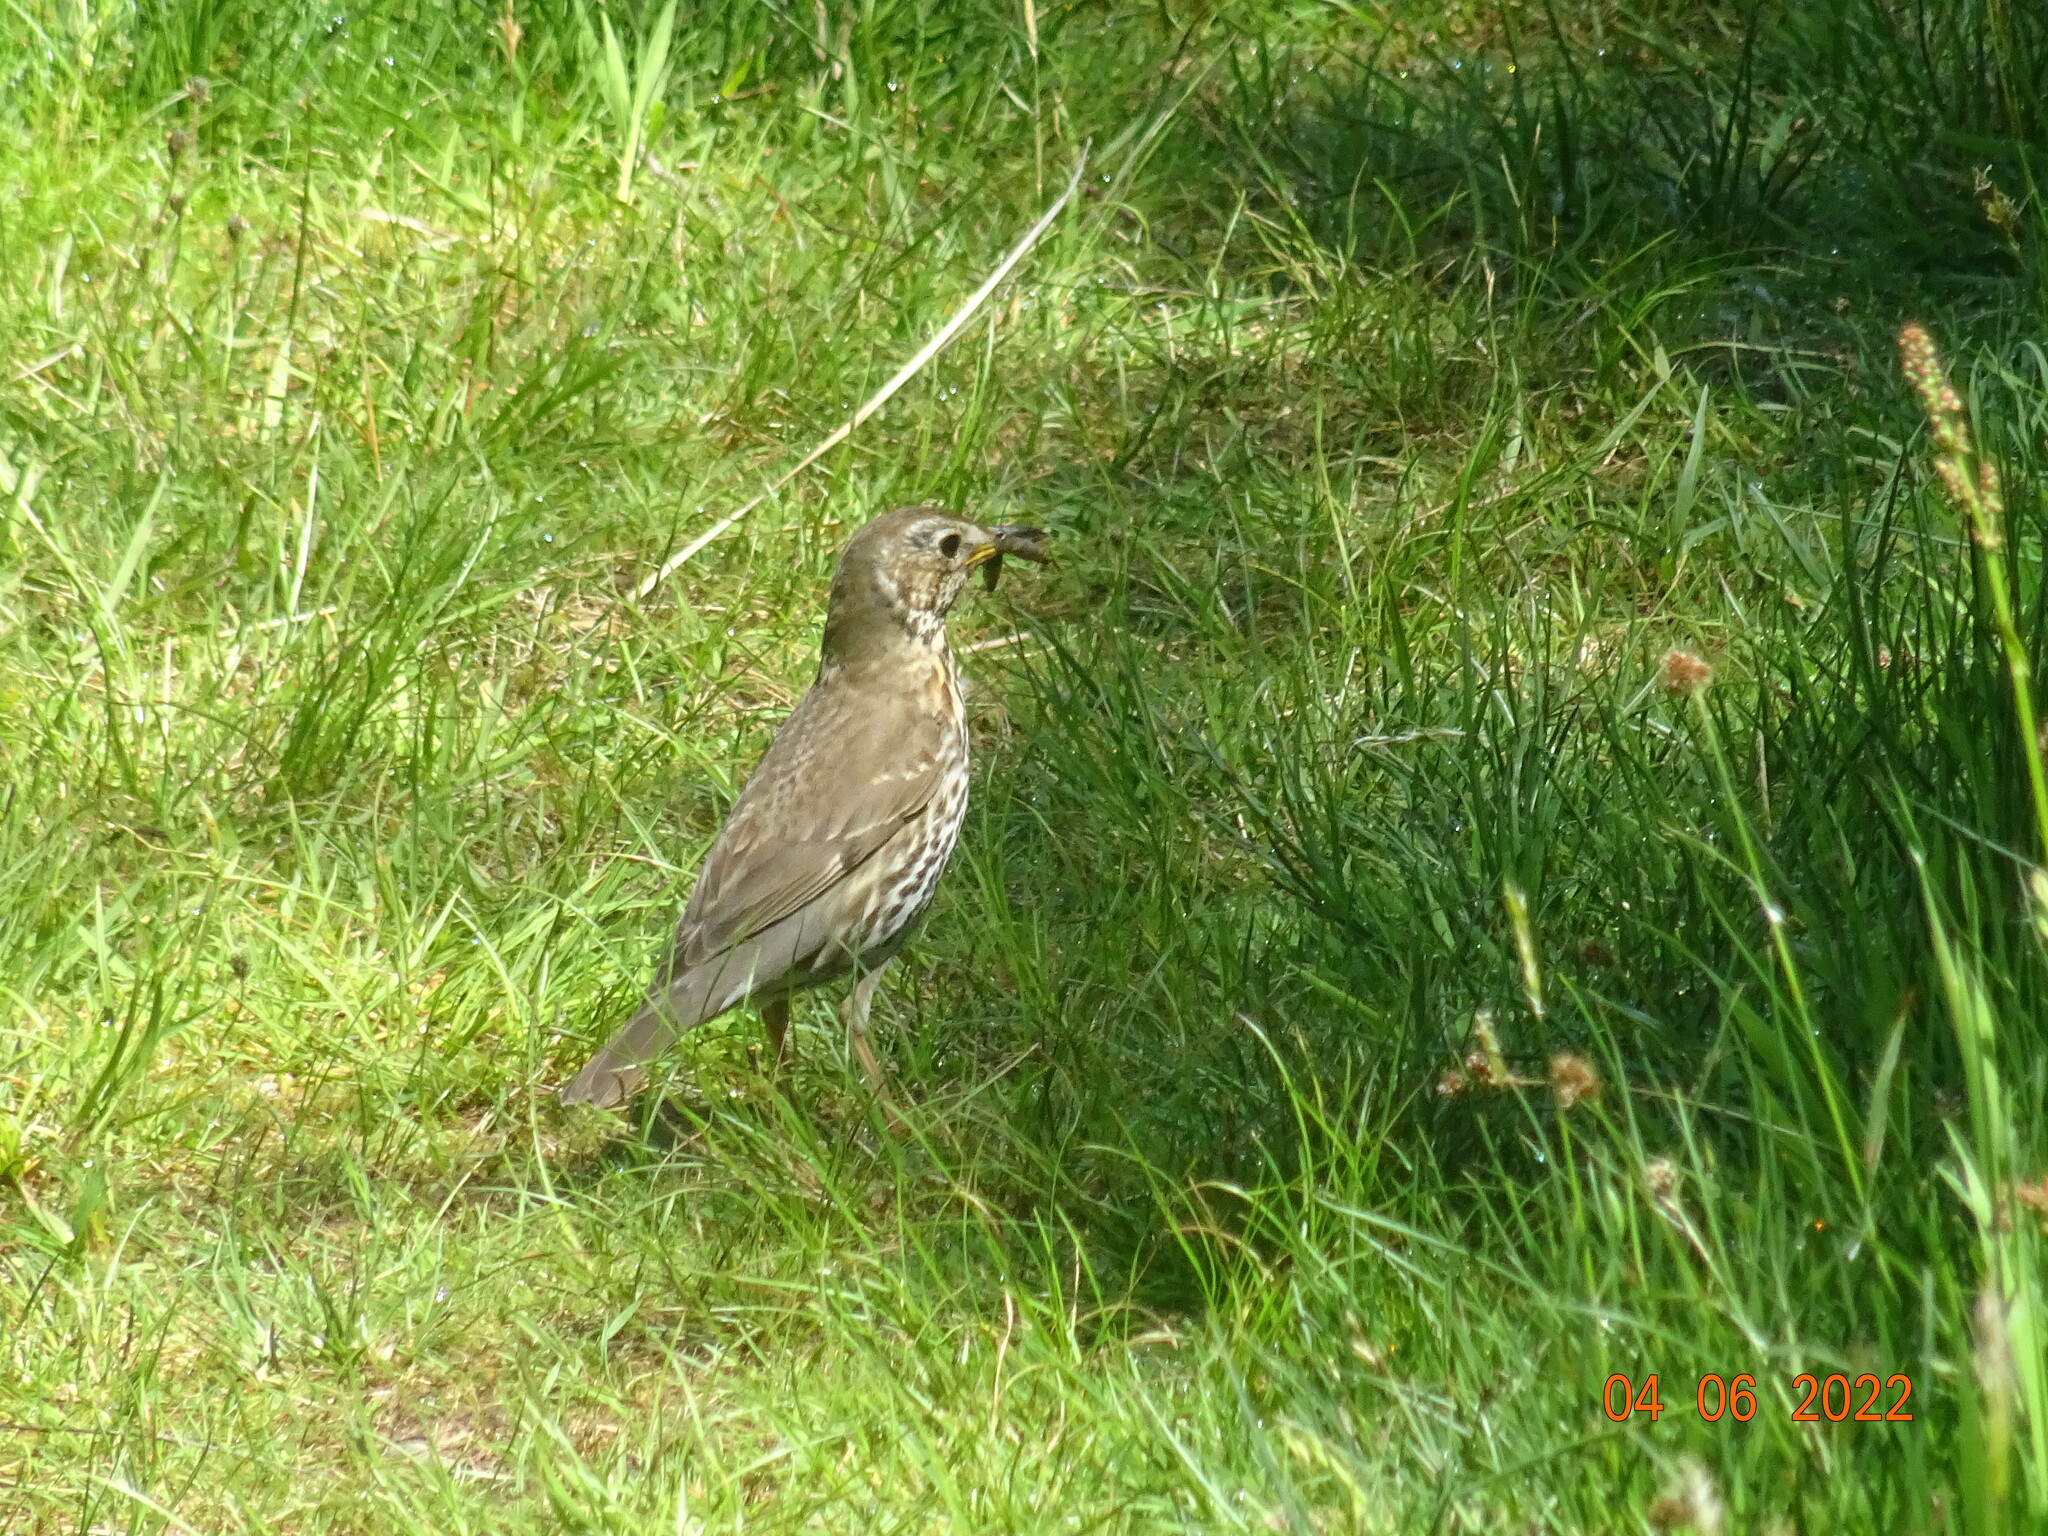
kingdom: Animalia
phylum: Chordata
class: Aves
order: Passeriformes
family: Turdidae
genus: Turdus
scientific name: Turdus philomelos
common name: Song thrush
